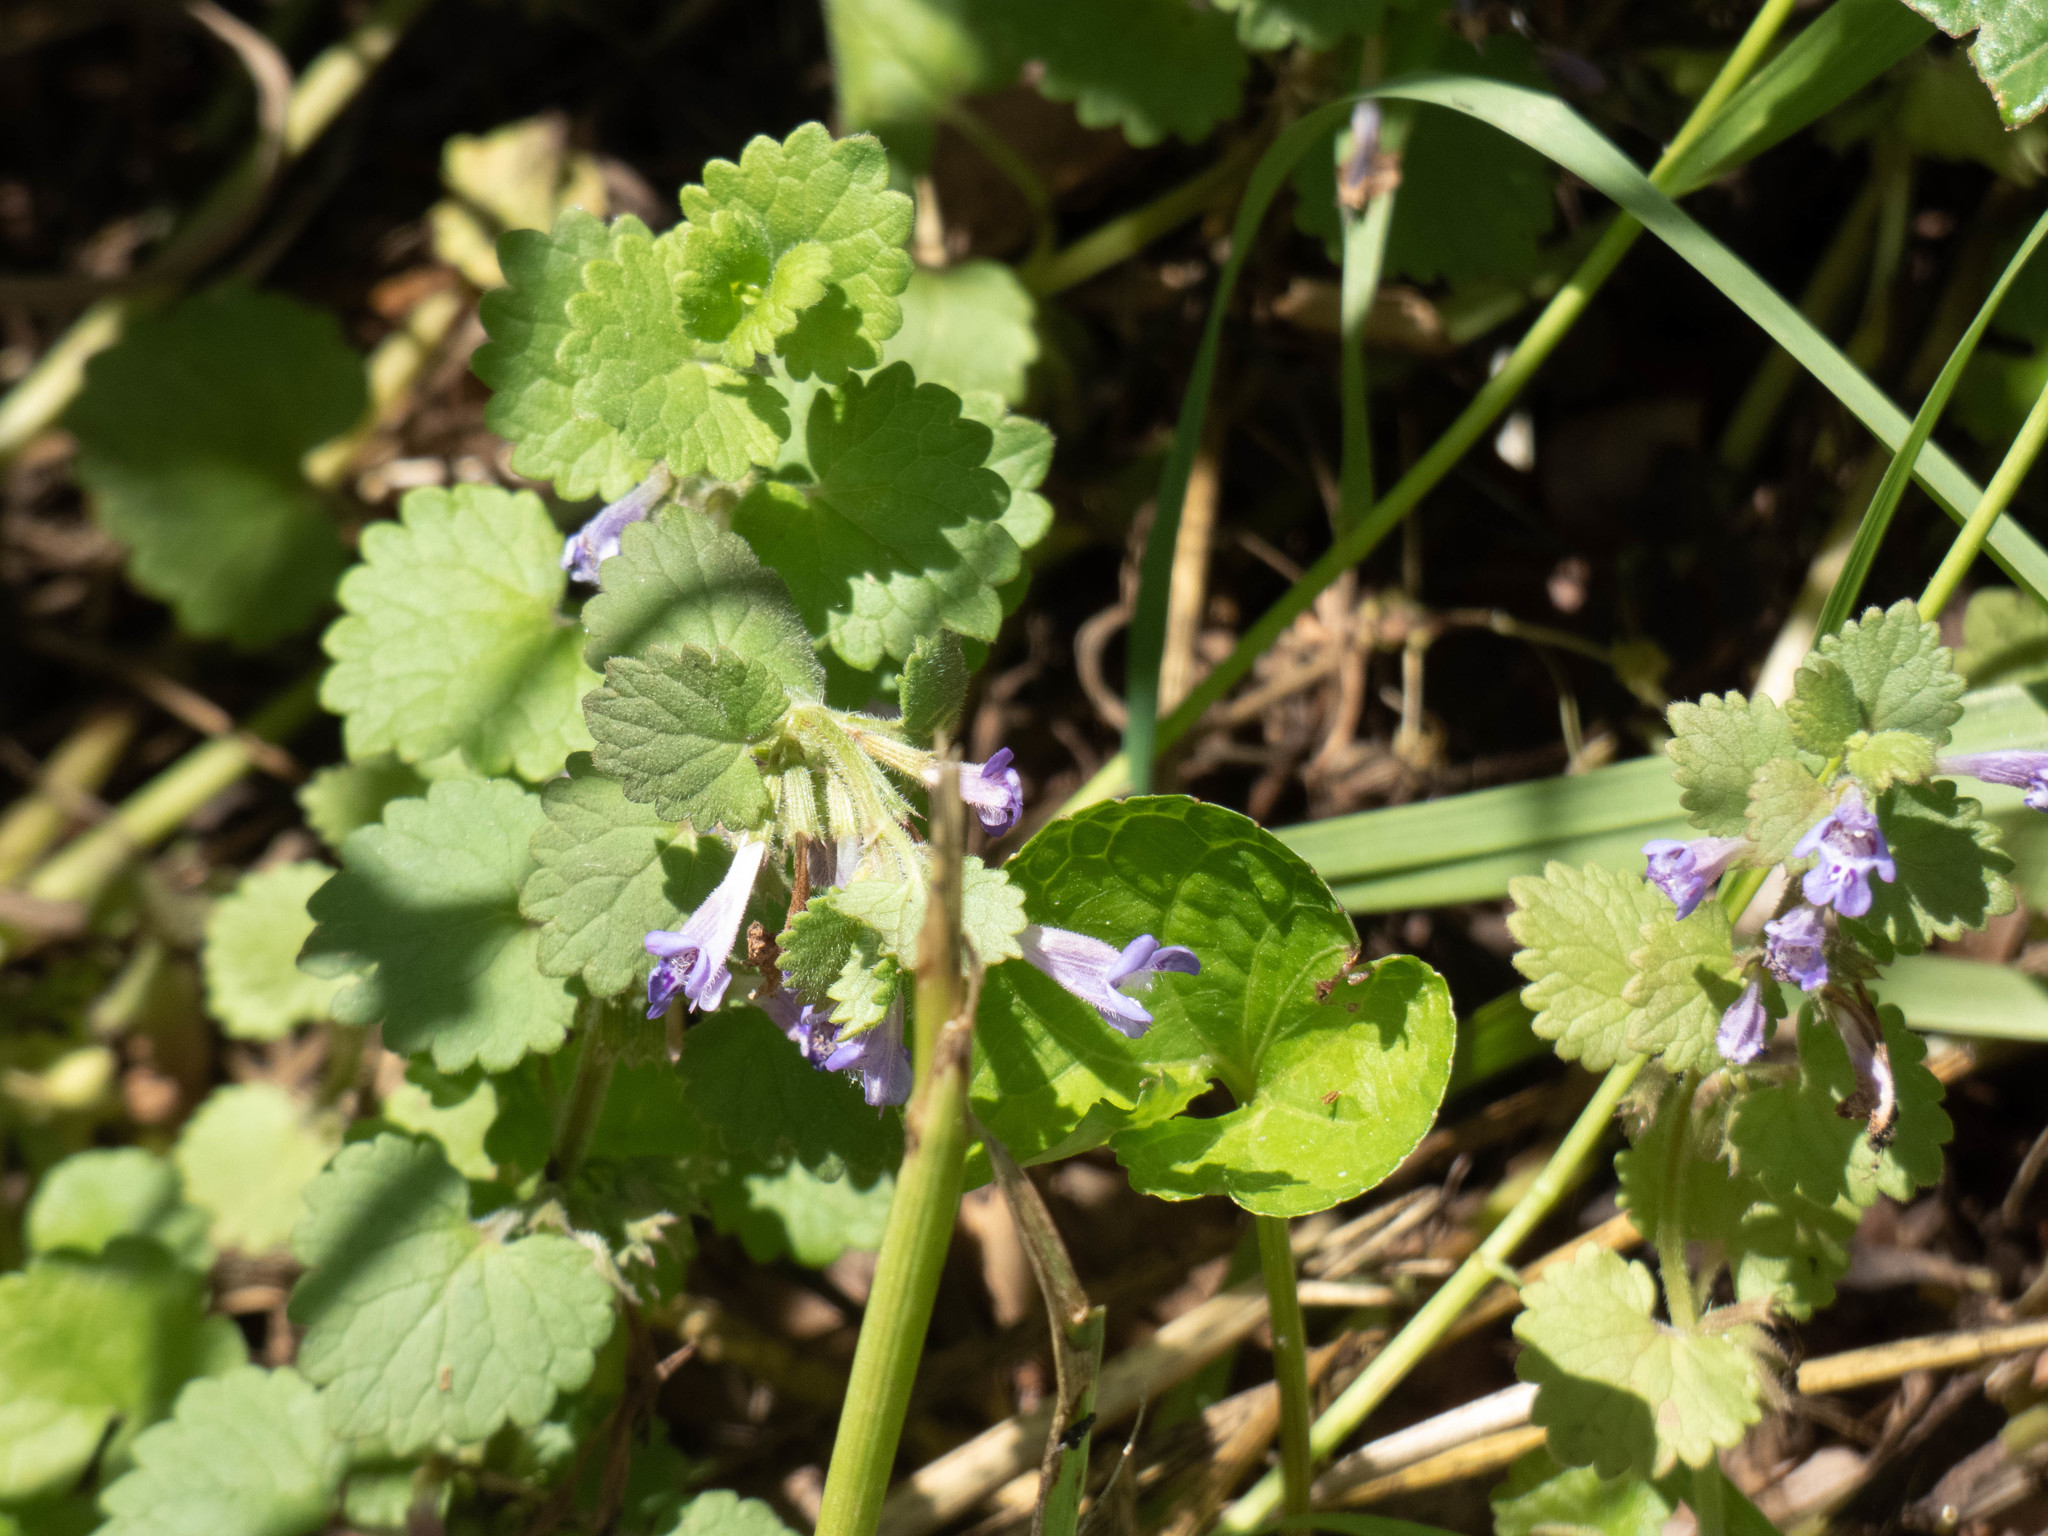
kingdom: Plantae
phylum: Tracheophyta
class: Magnoliopsida
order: Lamiales
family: Lamiaceae
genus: Glechoma
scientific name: Glechoma hederacea
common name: Ground ivy
